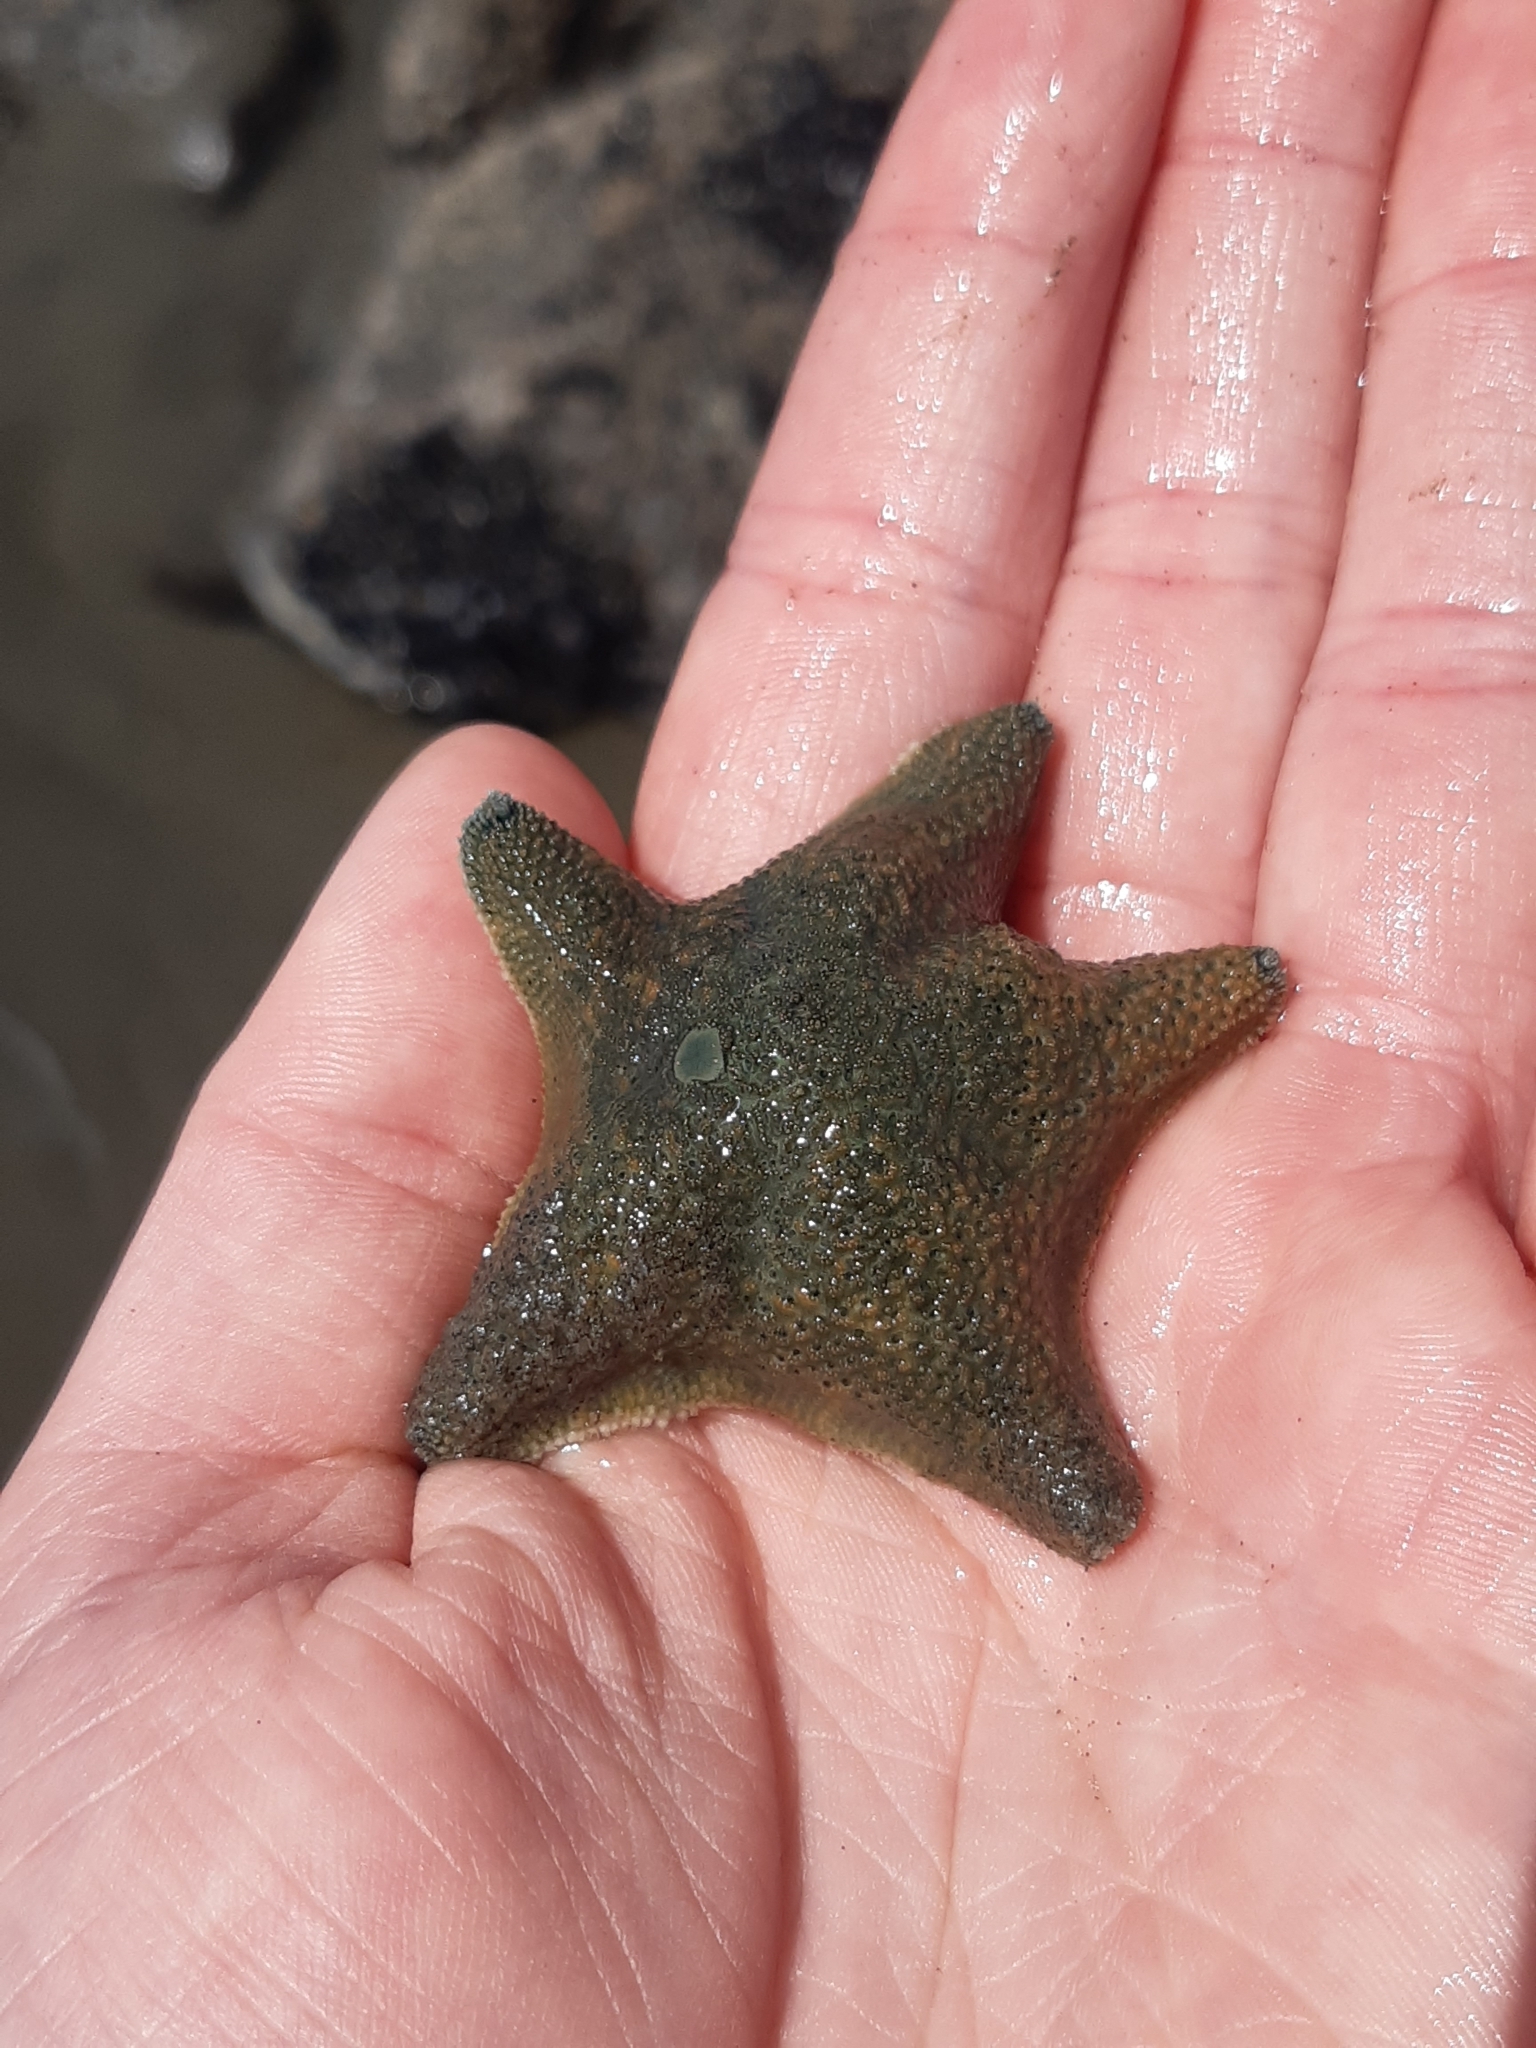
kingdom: Animalia
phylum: Echinodermata
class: Asteroidea
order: Valvatida
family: Asterinidae
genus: Patiriella
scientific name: Patiriella regularis
